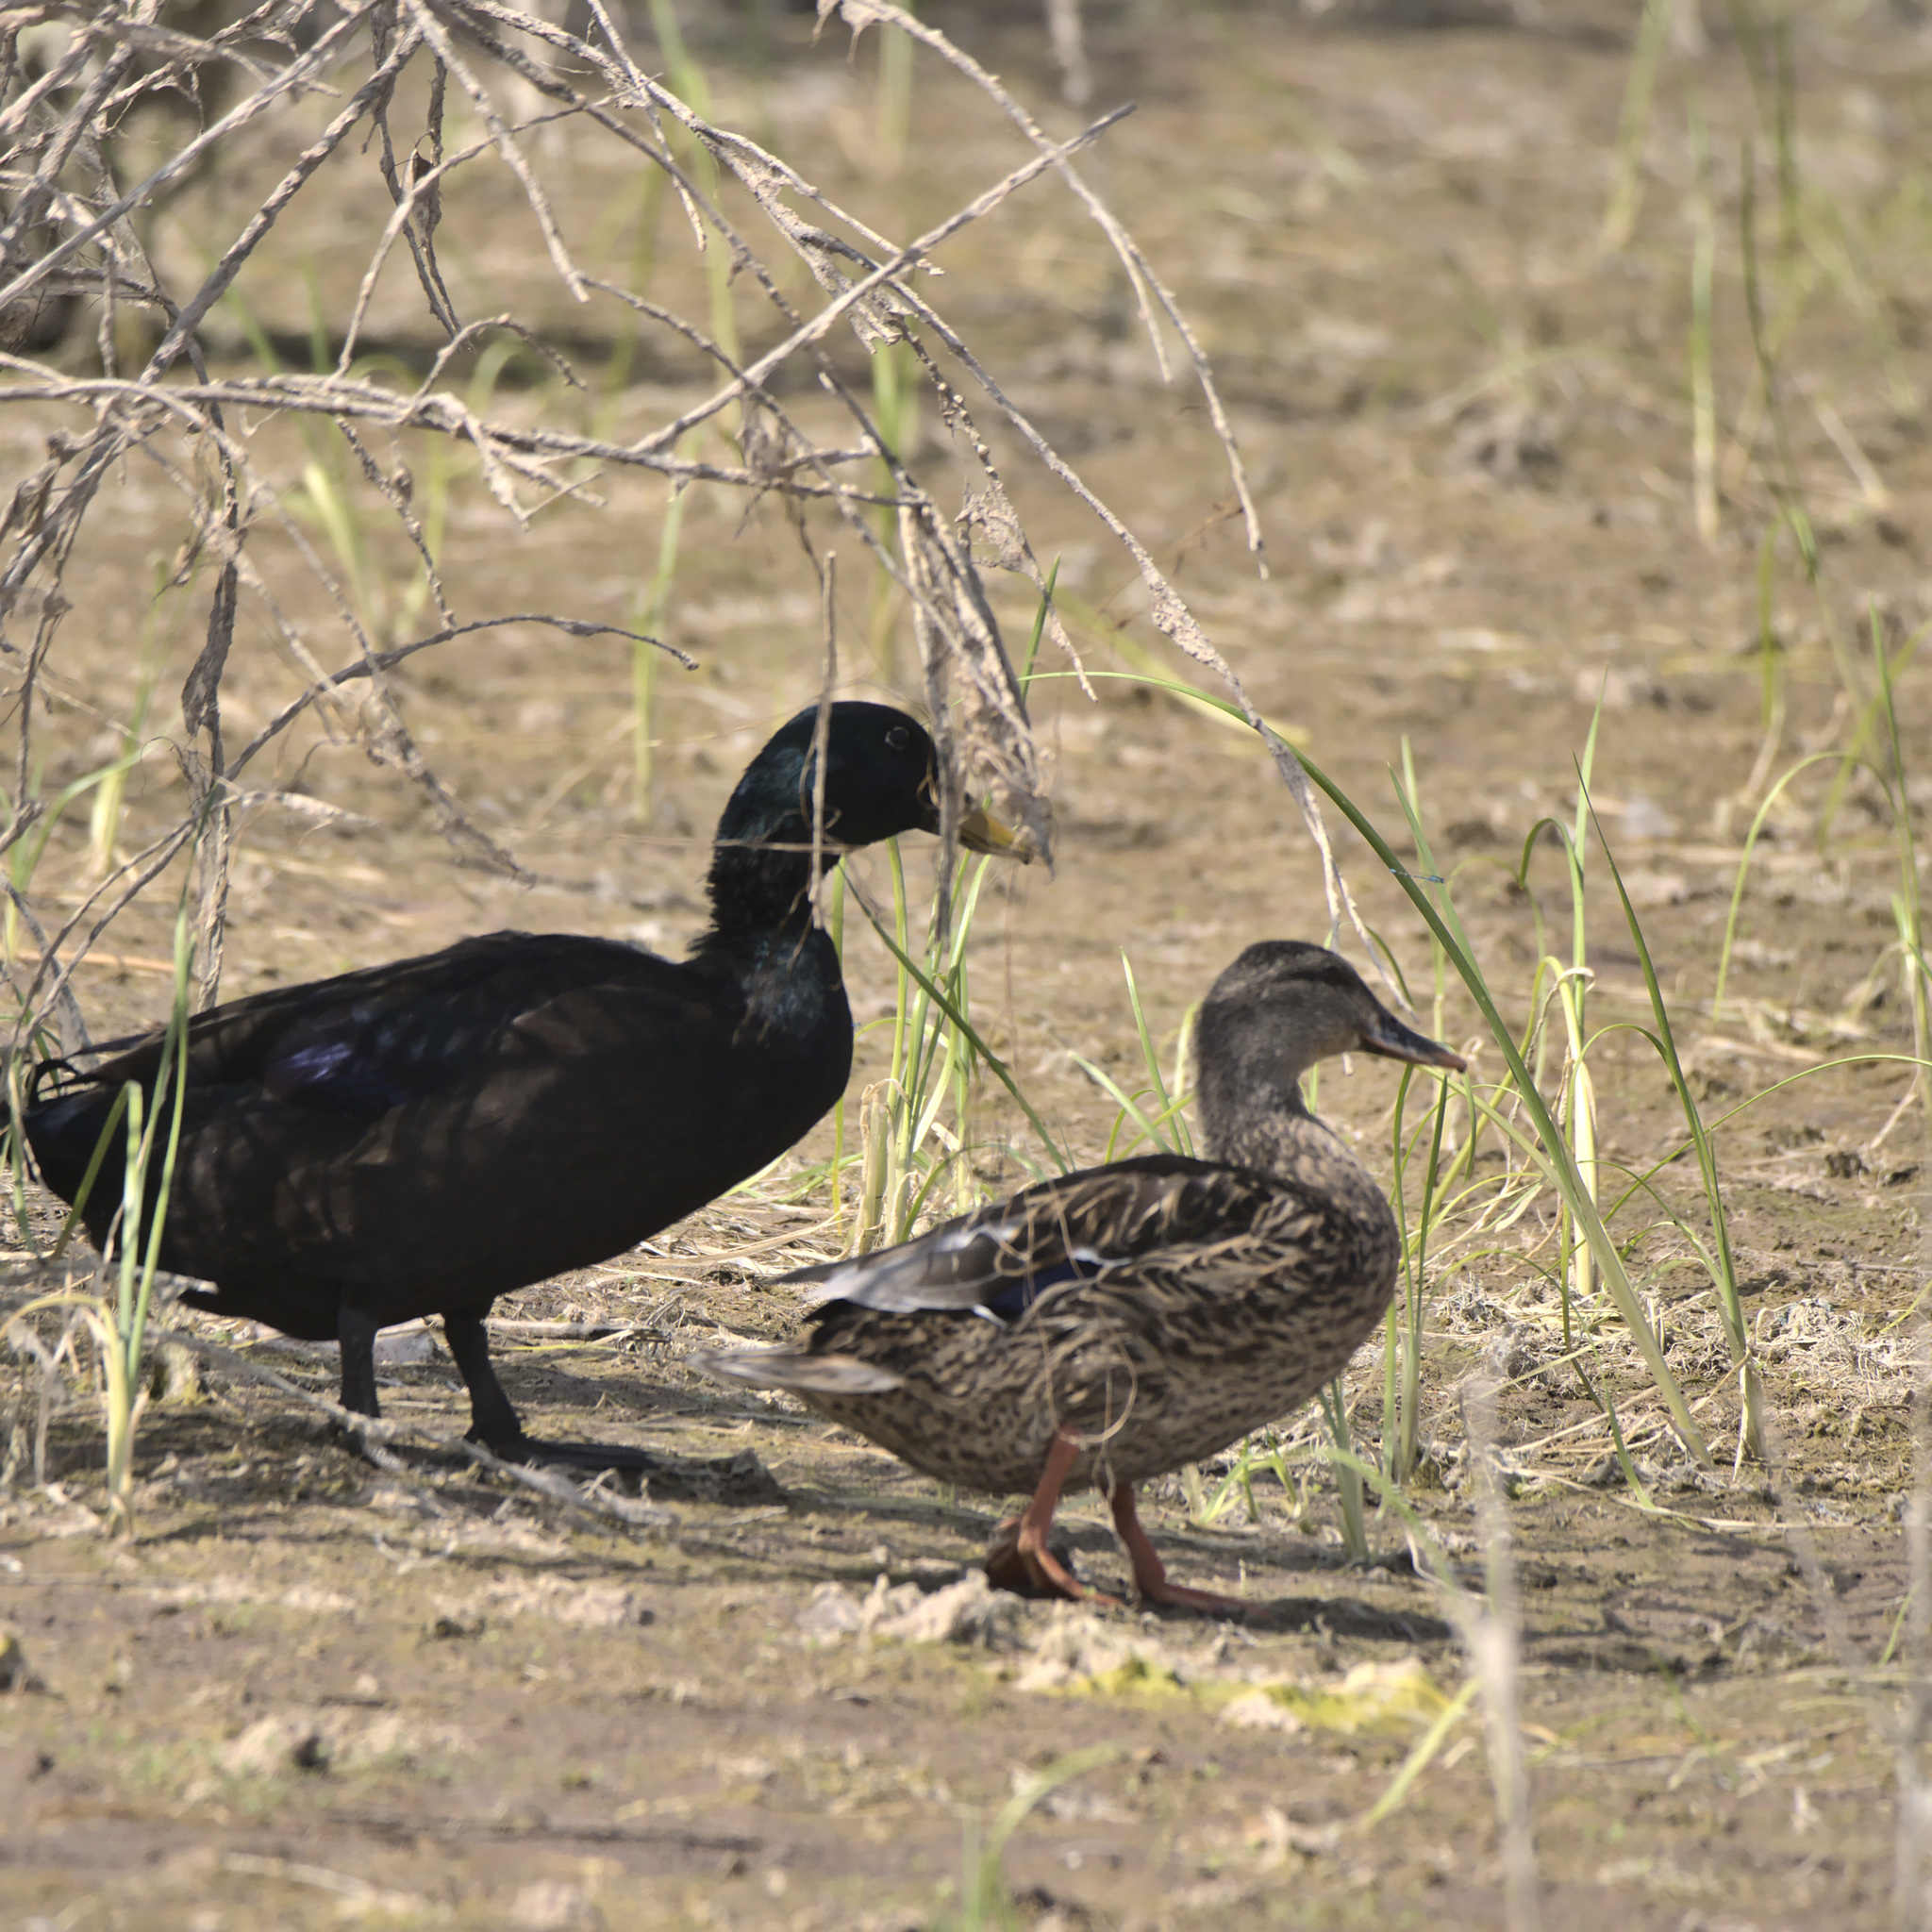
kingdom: Animalia
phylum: Chordata
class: Aves
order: Anseriformes
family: Anatidae
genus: Anas
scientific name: Anas platyrhynchos
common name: Mallard
